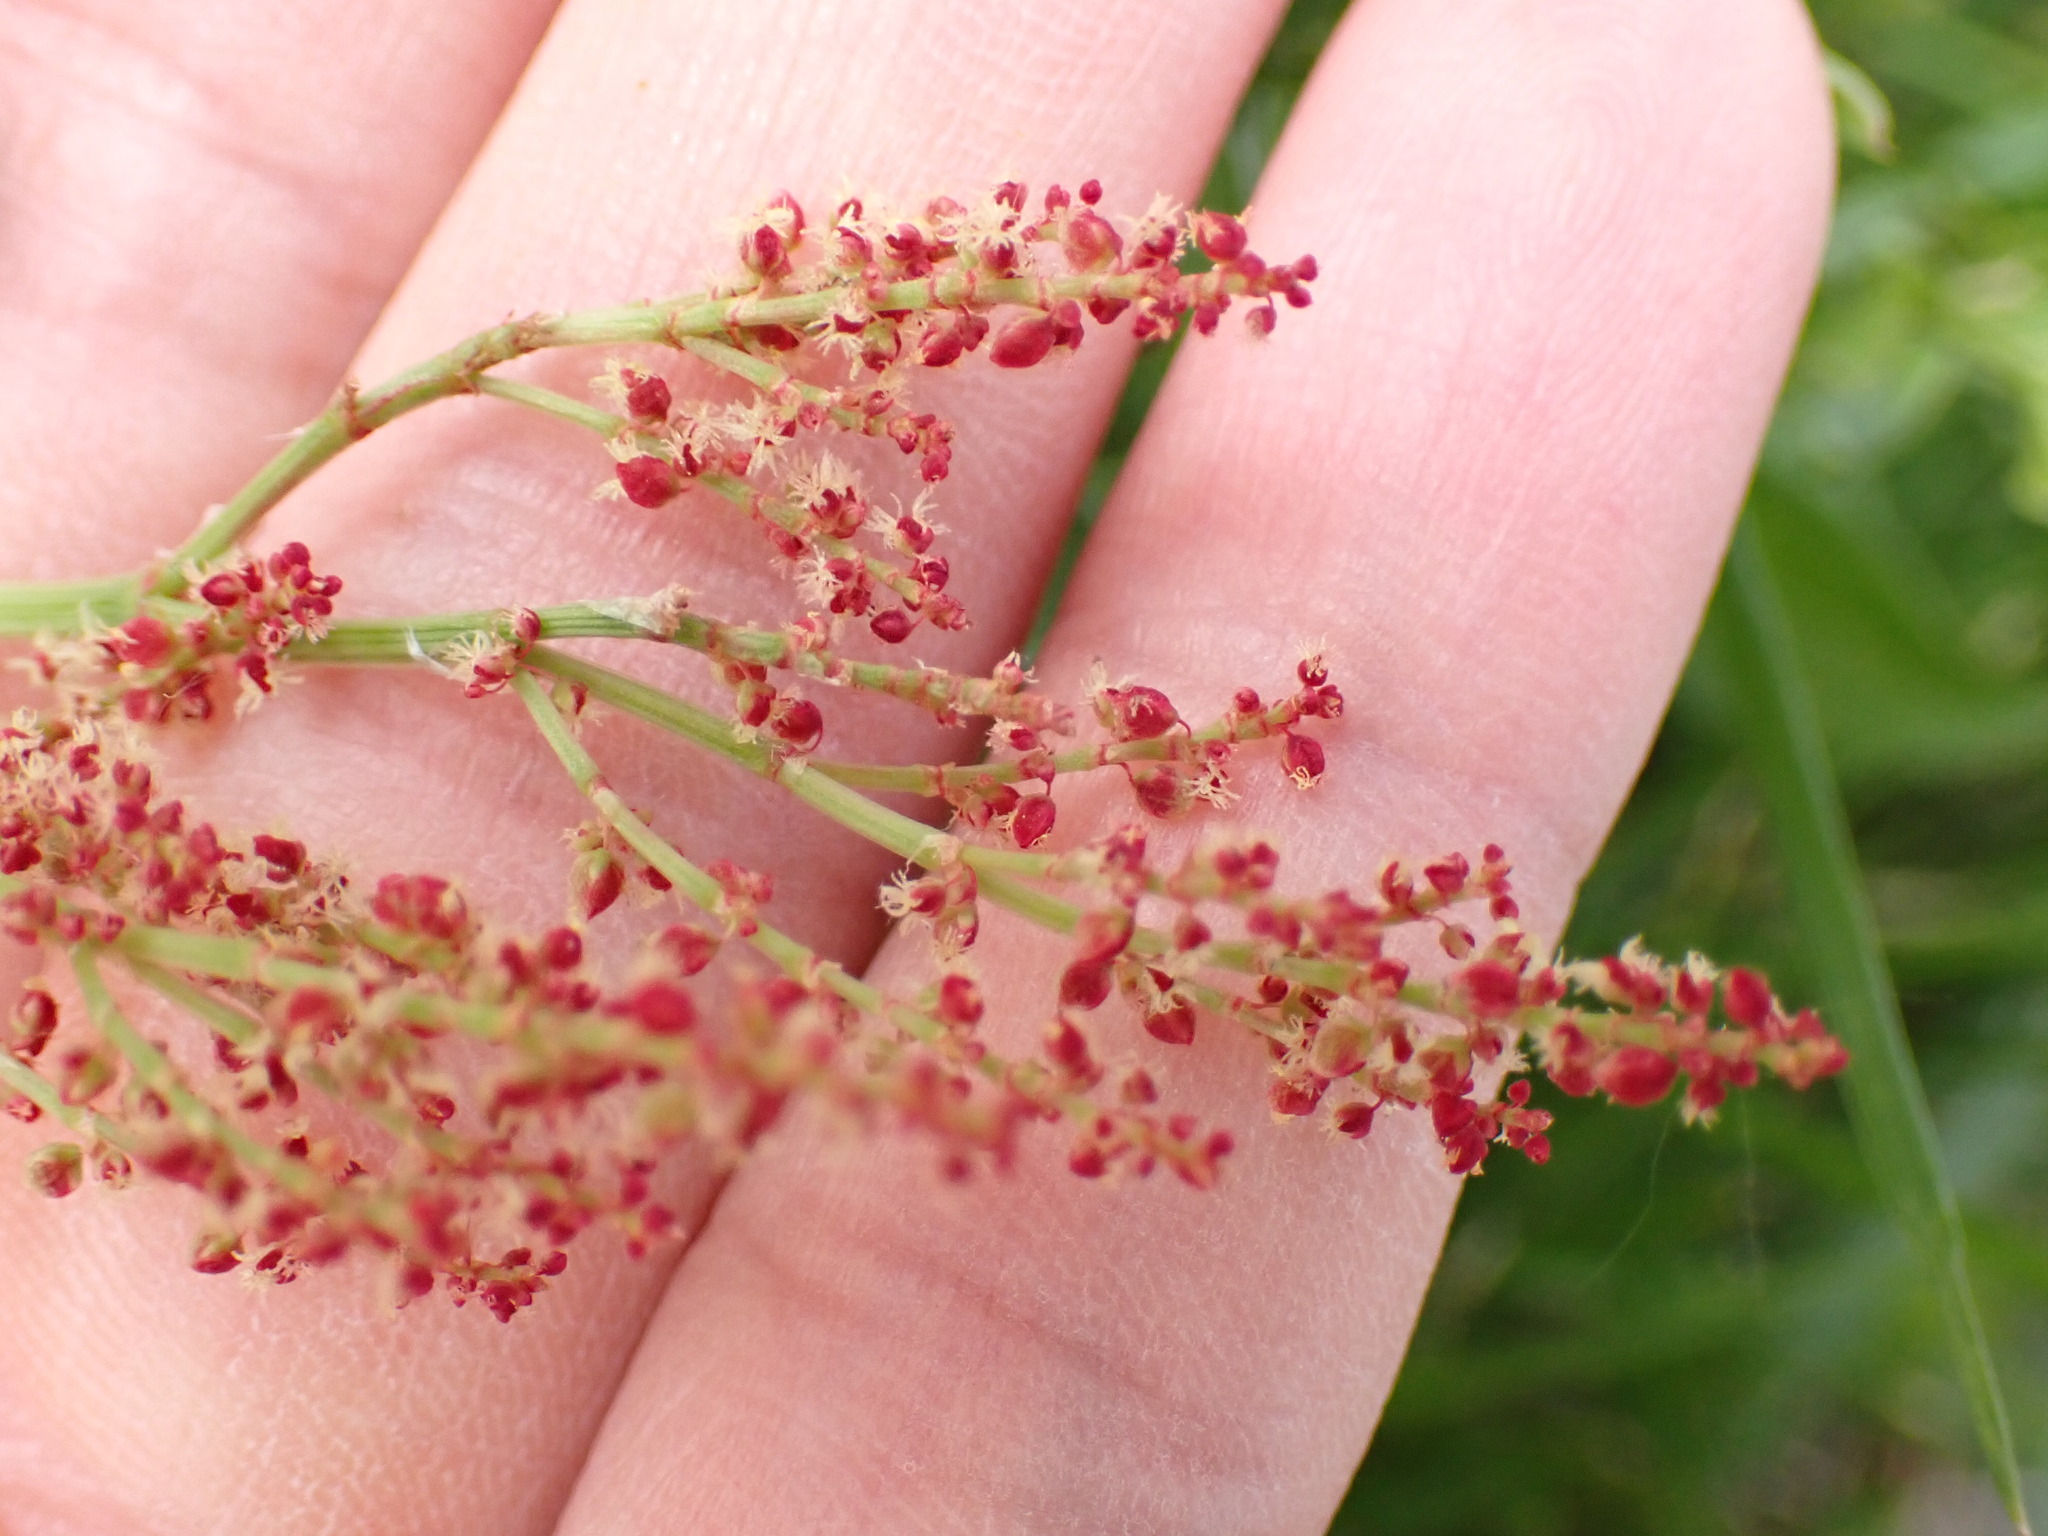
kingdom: Plantae
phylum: Tracheophyta
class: Magnoliopsida
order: Caryophyllales
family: Polygonaceae
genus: Rumex
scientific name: Rumex acetosella
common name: Common sheep sorrel
